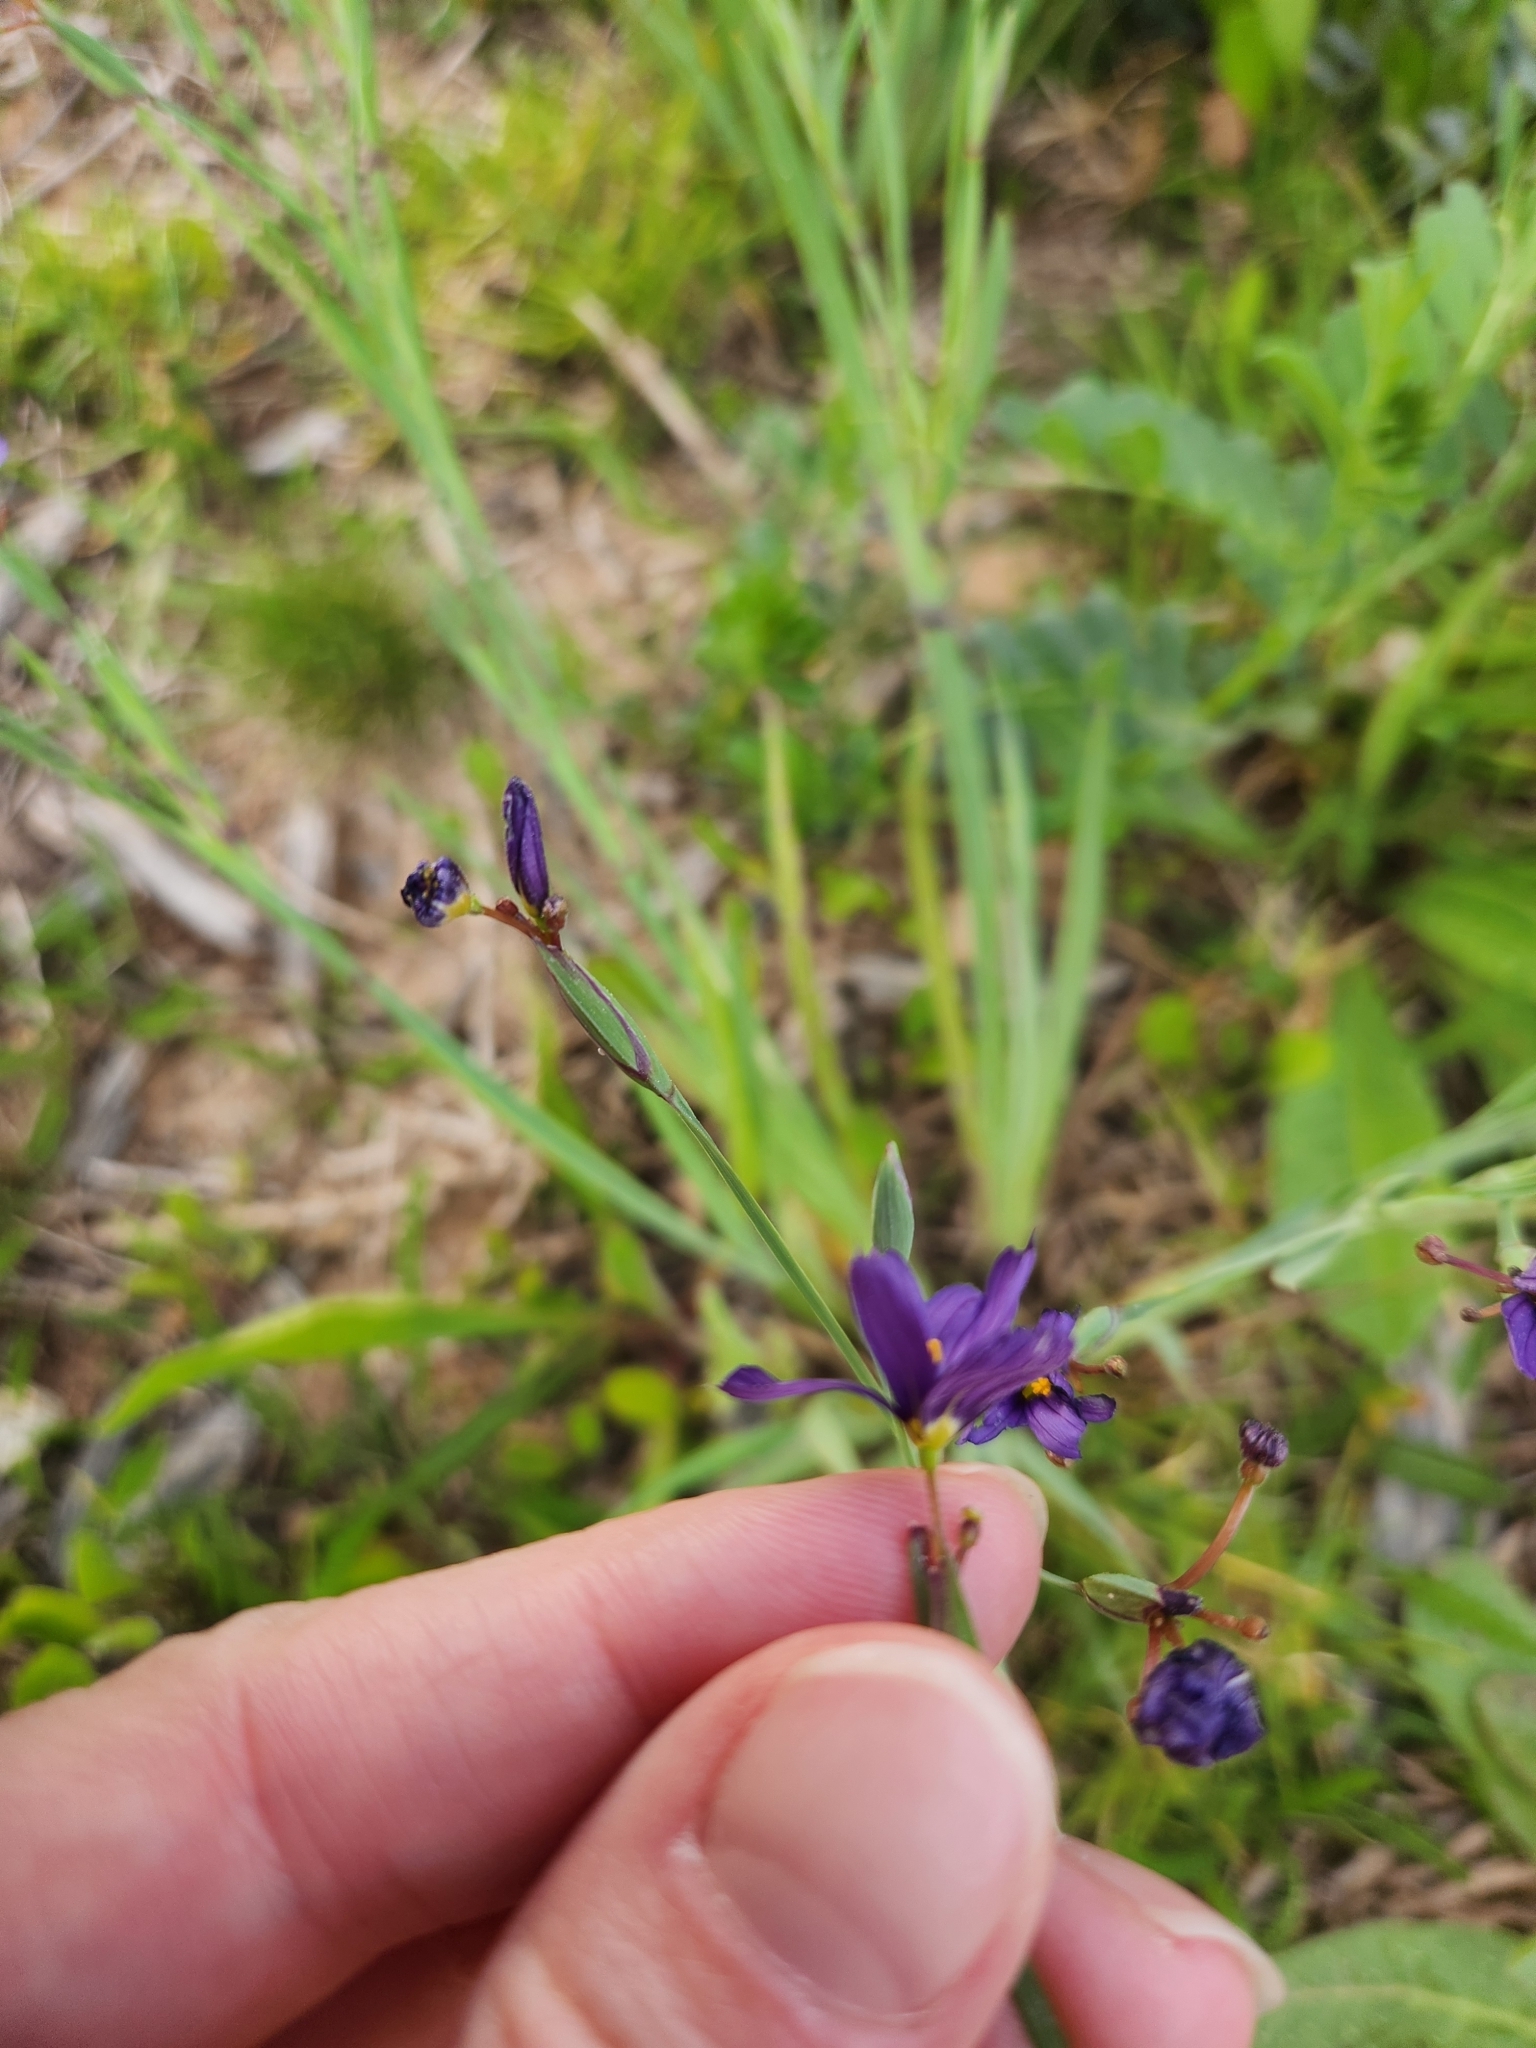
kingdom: Plantae
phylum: Tracheophyta
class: Liliopsida
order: Asparagales
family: Iridaceae
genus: Sisyrinchium
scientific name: Sisyrinchium bellum
